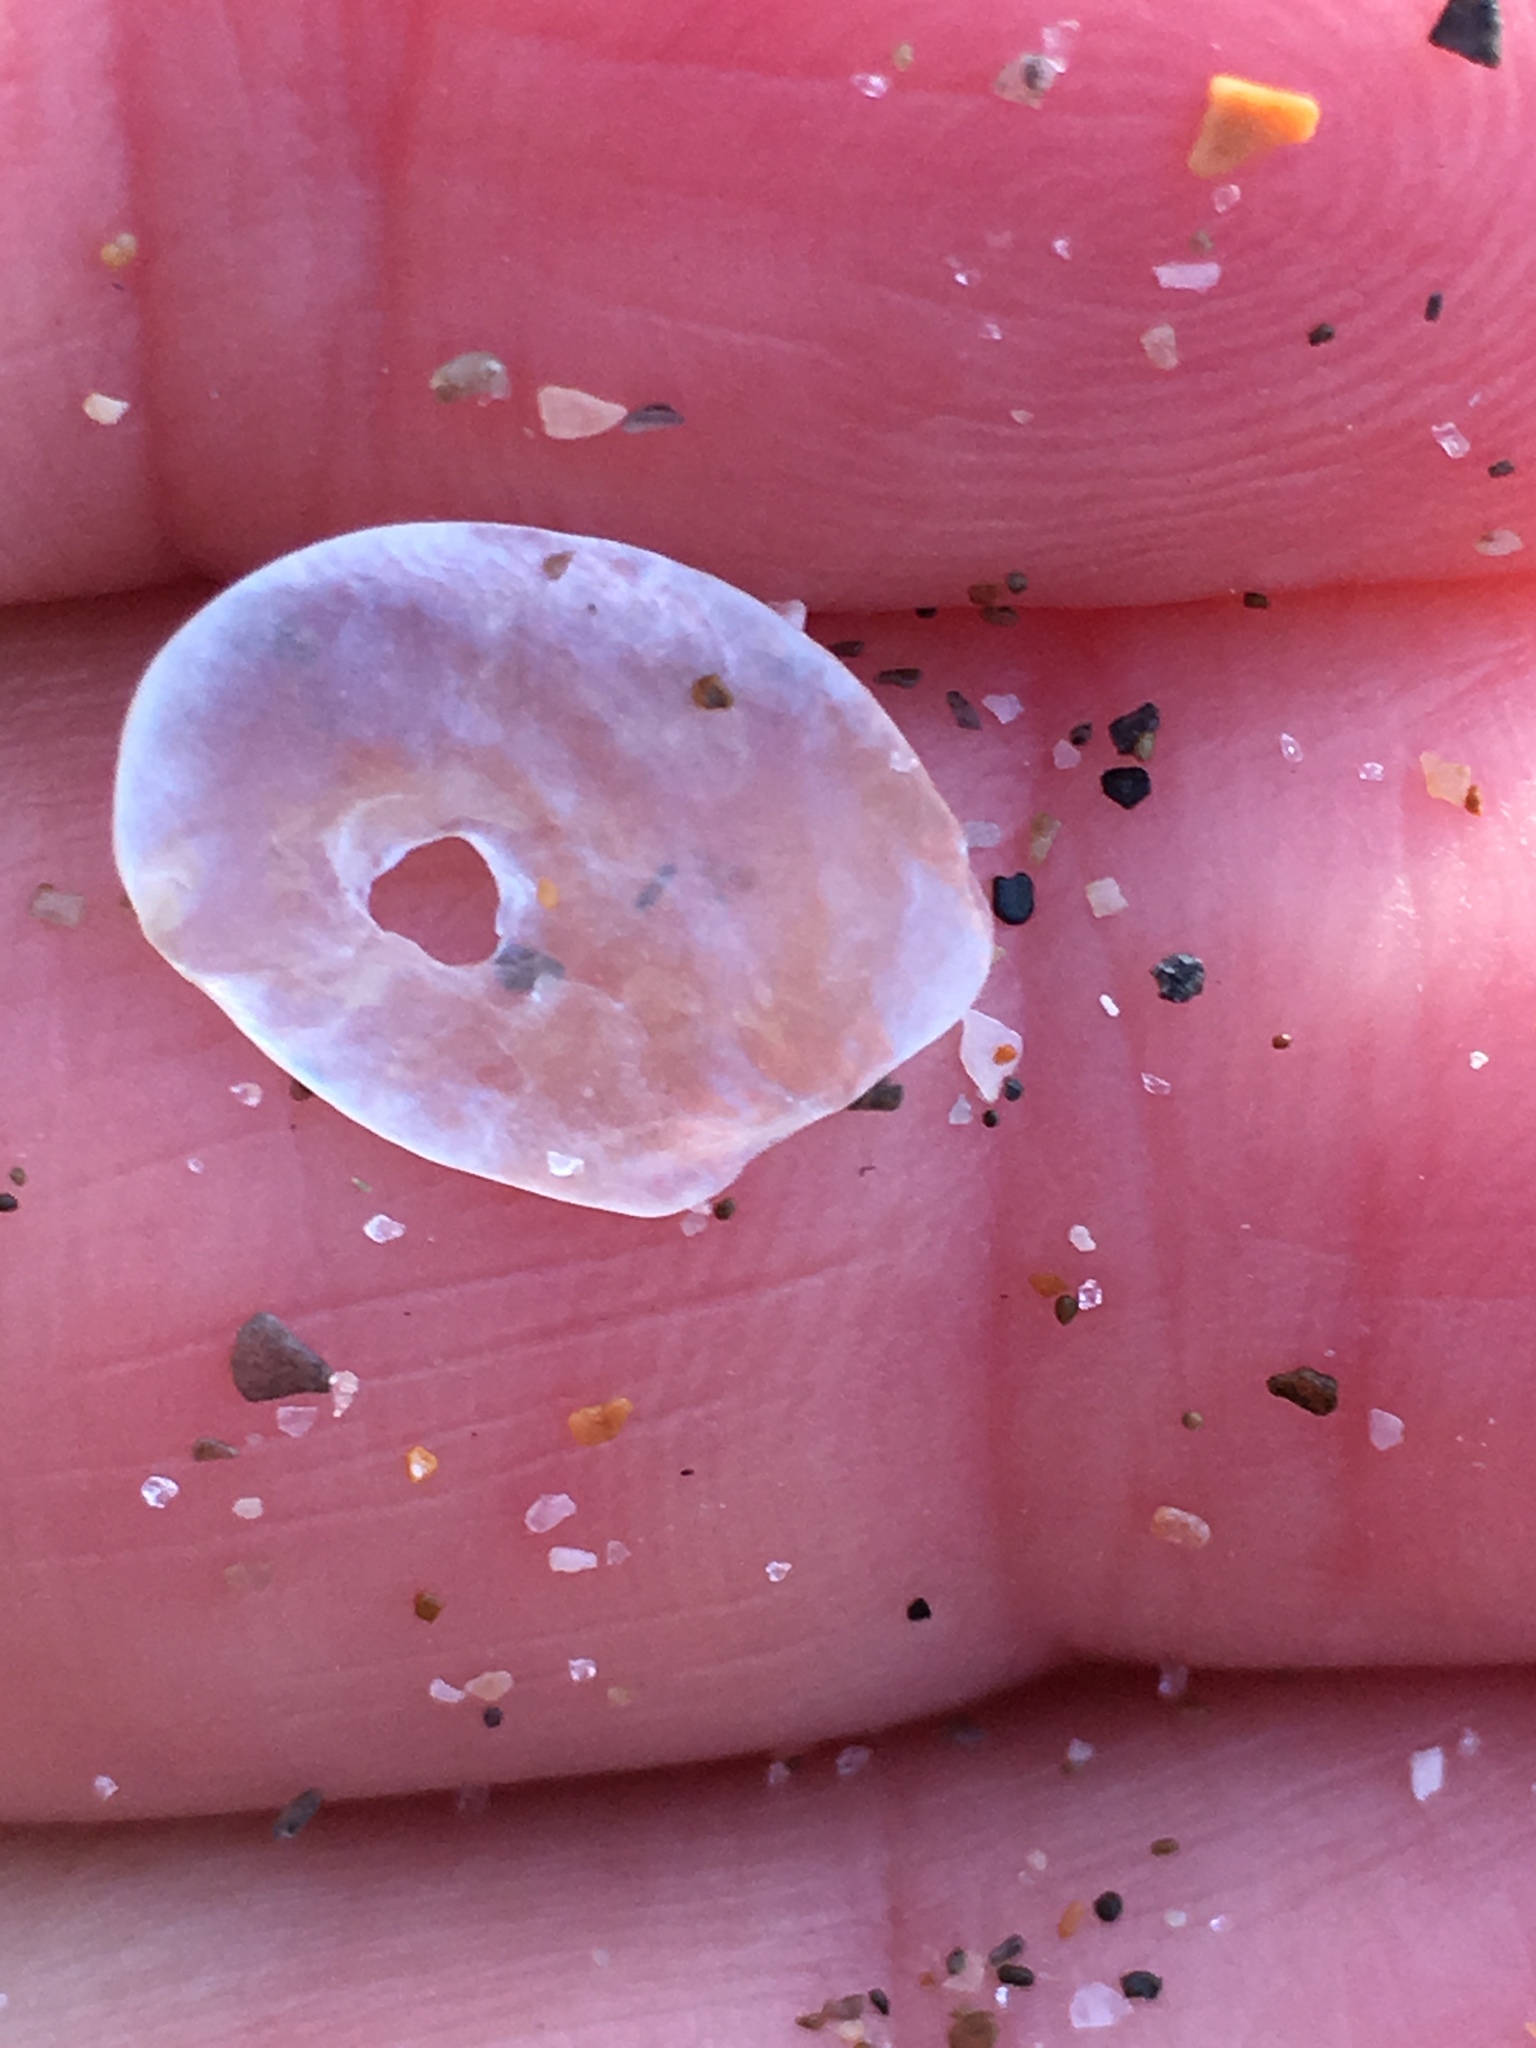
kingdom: Animalia
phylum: Mollusca
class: Bivalvia
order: Pectinida
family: Anomiidae
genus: Anomia
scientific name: Anomia simplex
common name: Common jingle shell
